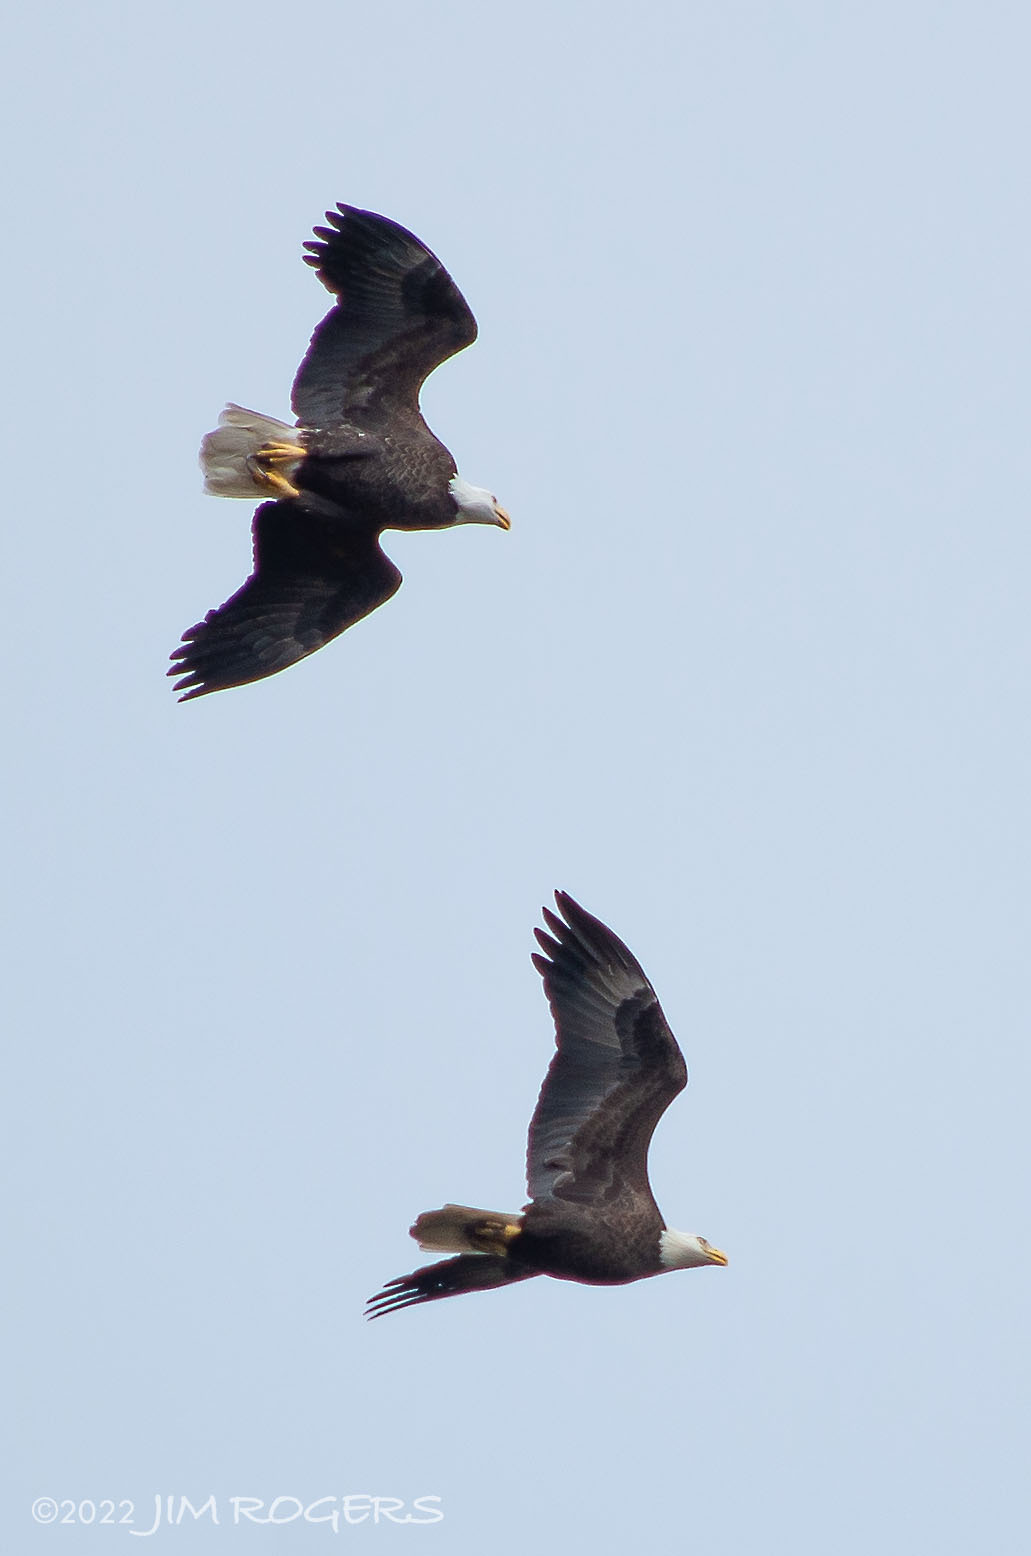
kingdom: Animalia
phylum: Chordata
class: Aves
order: Accipitriformes
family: Accipitridae
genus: Haliaeetus
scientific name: Haliaeetus leucocephalus
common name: Bald eagle
